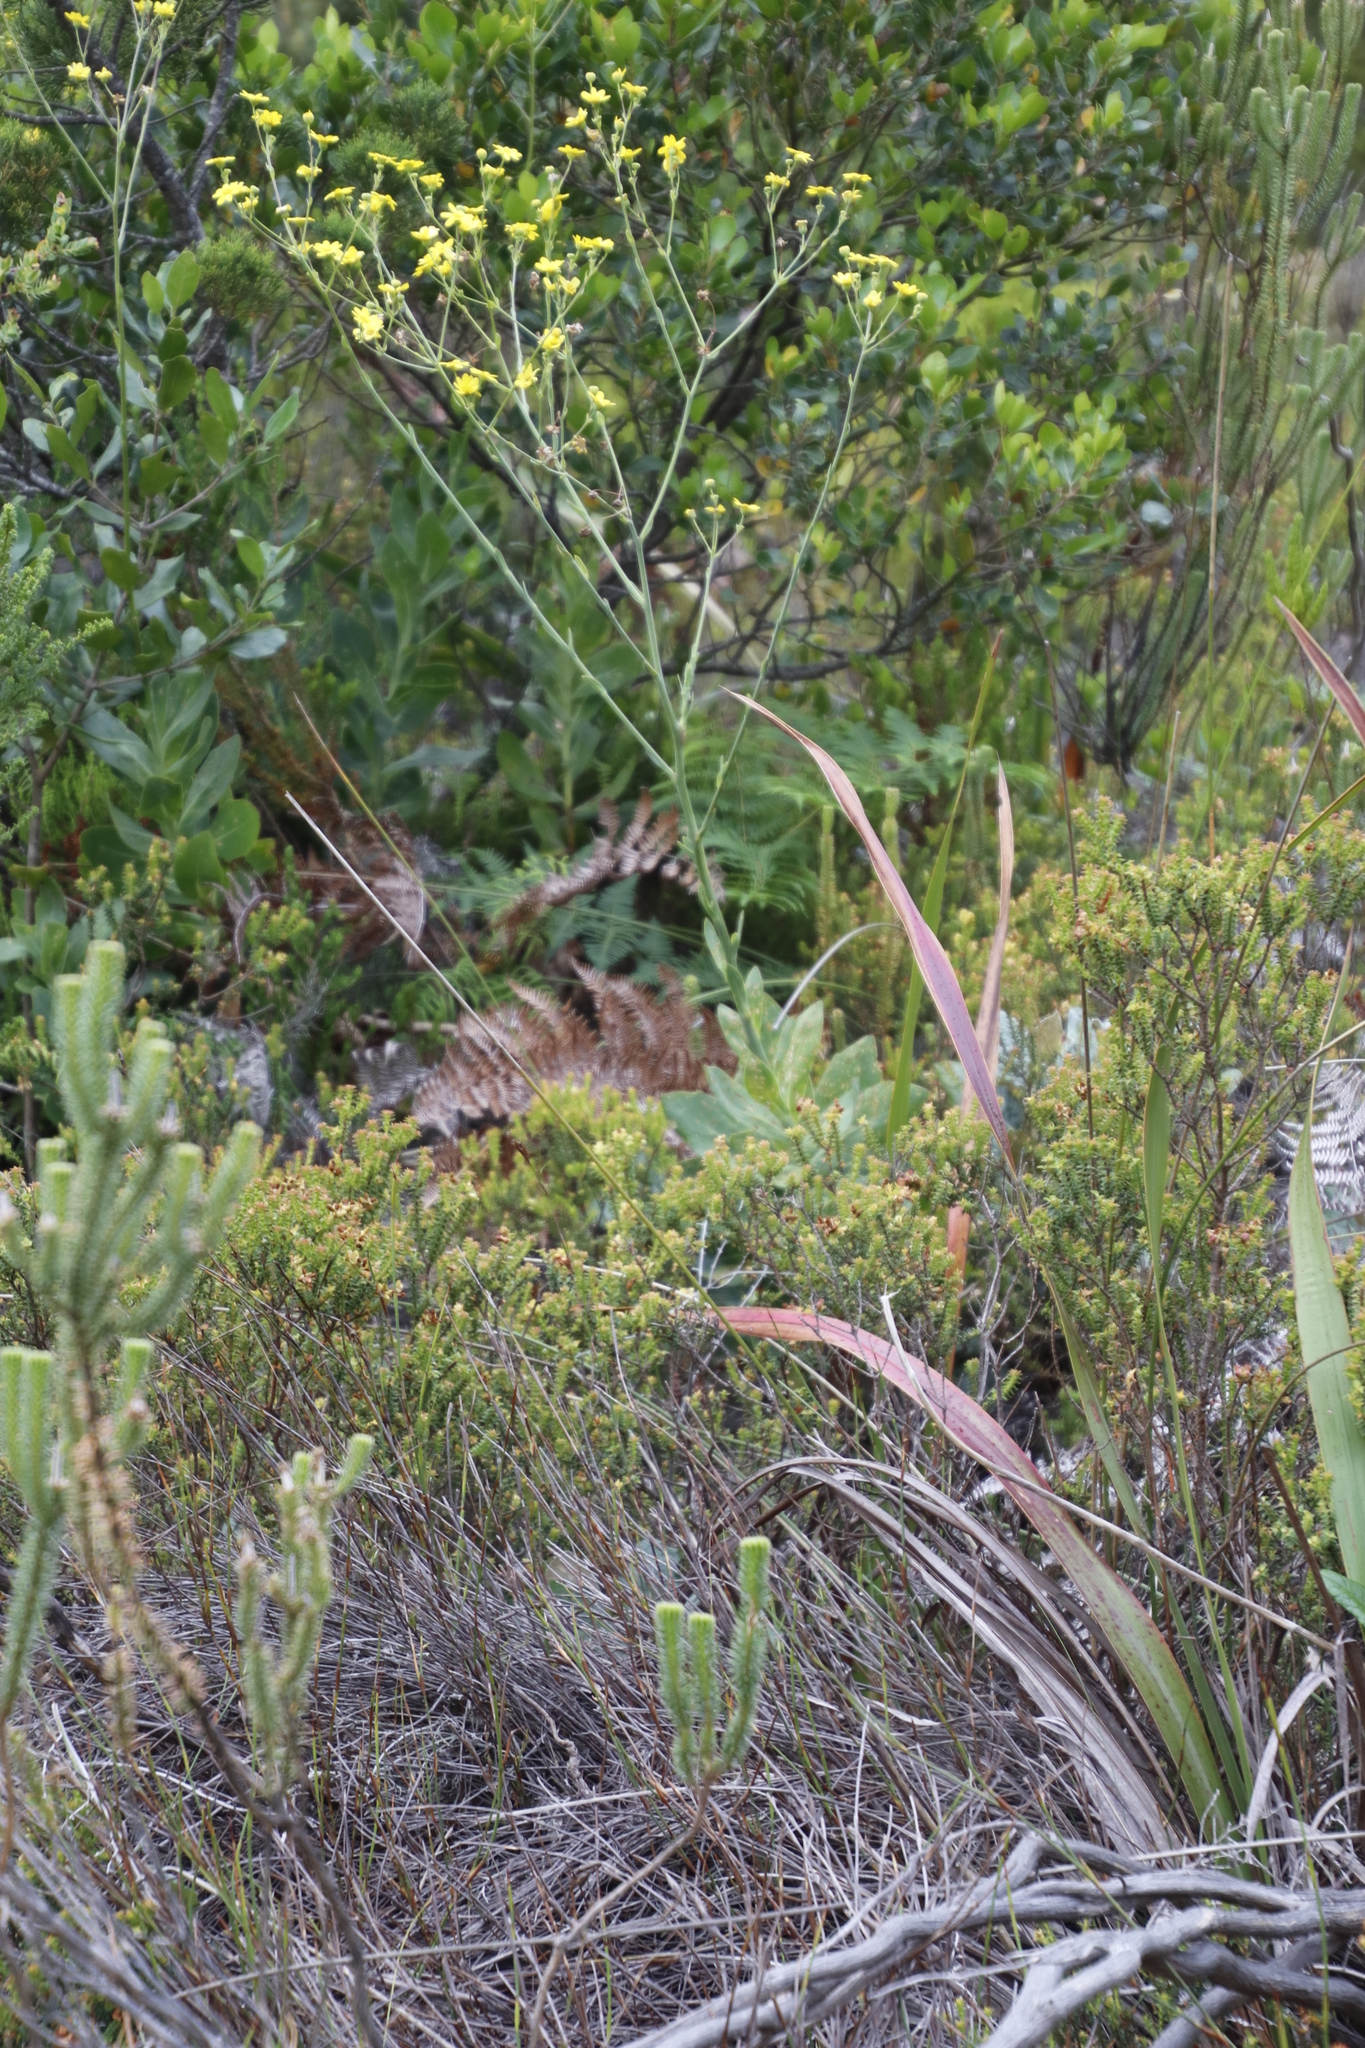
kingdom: Plantae
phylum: Tracheophyta
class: Magnoliopsida
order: Asterales
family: Asteraceae
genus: Othonna
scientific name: Othonna quinquedentata
